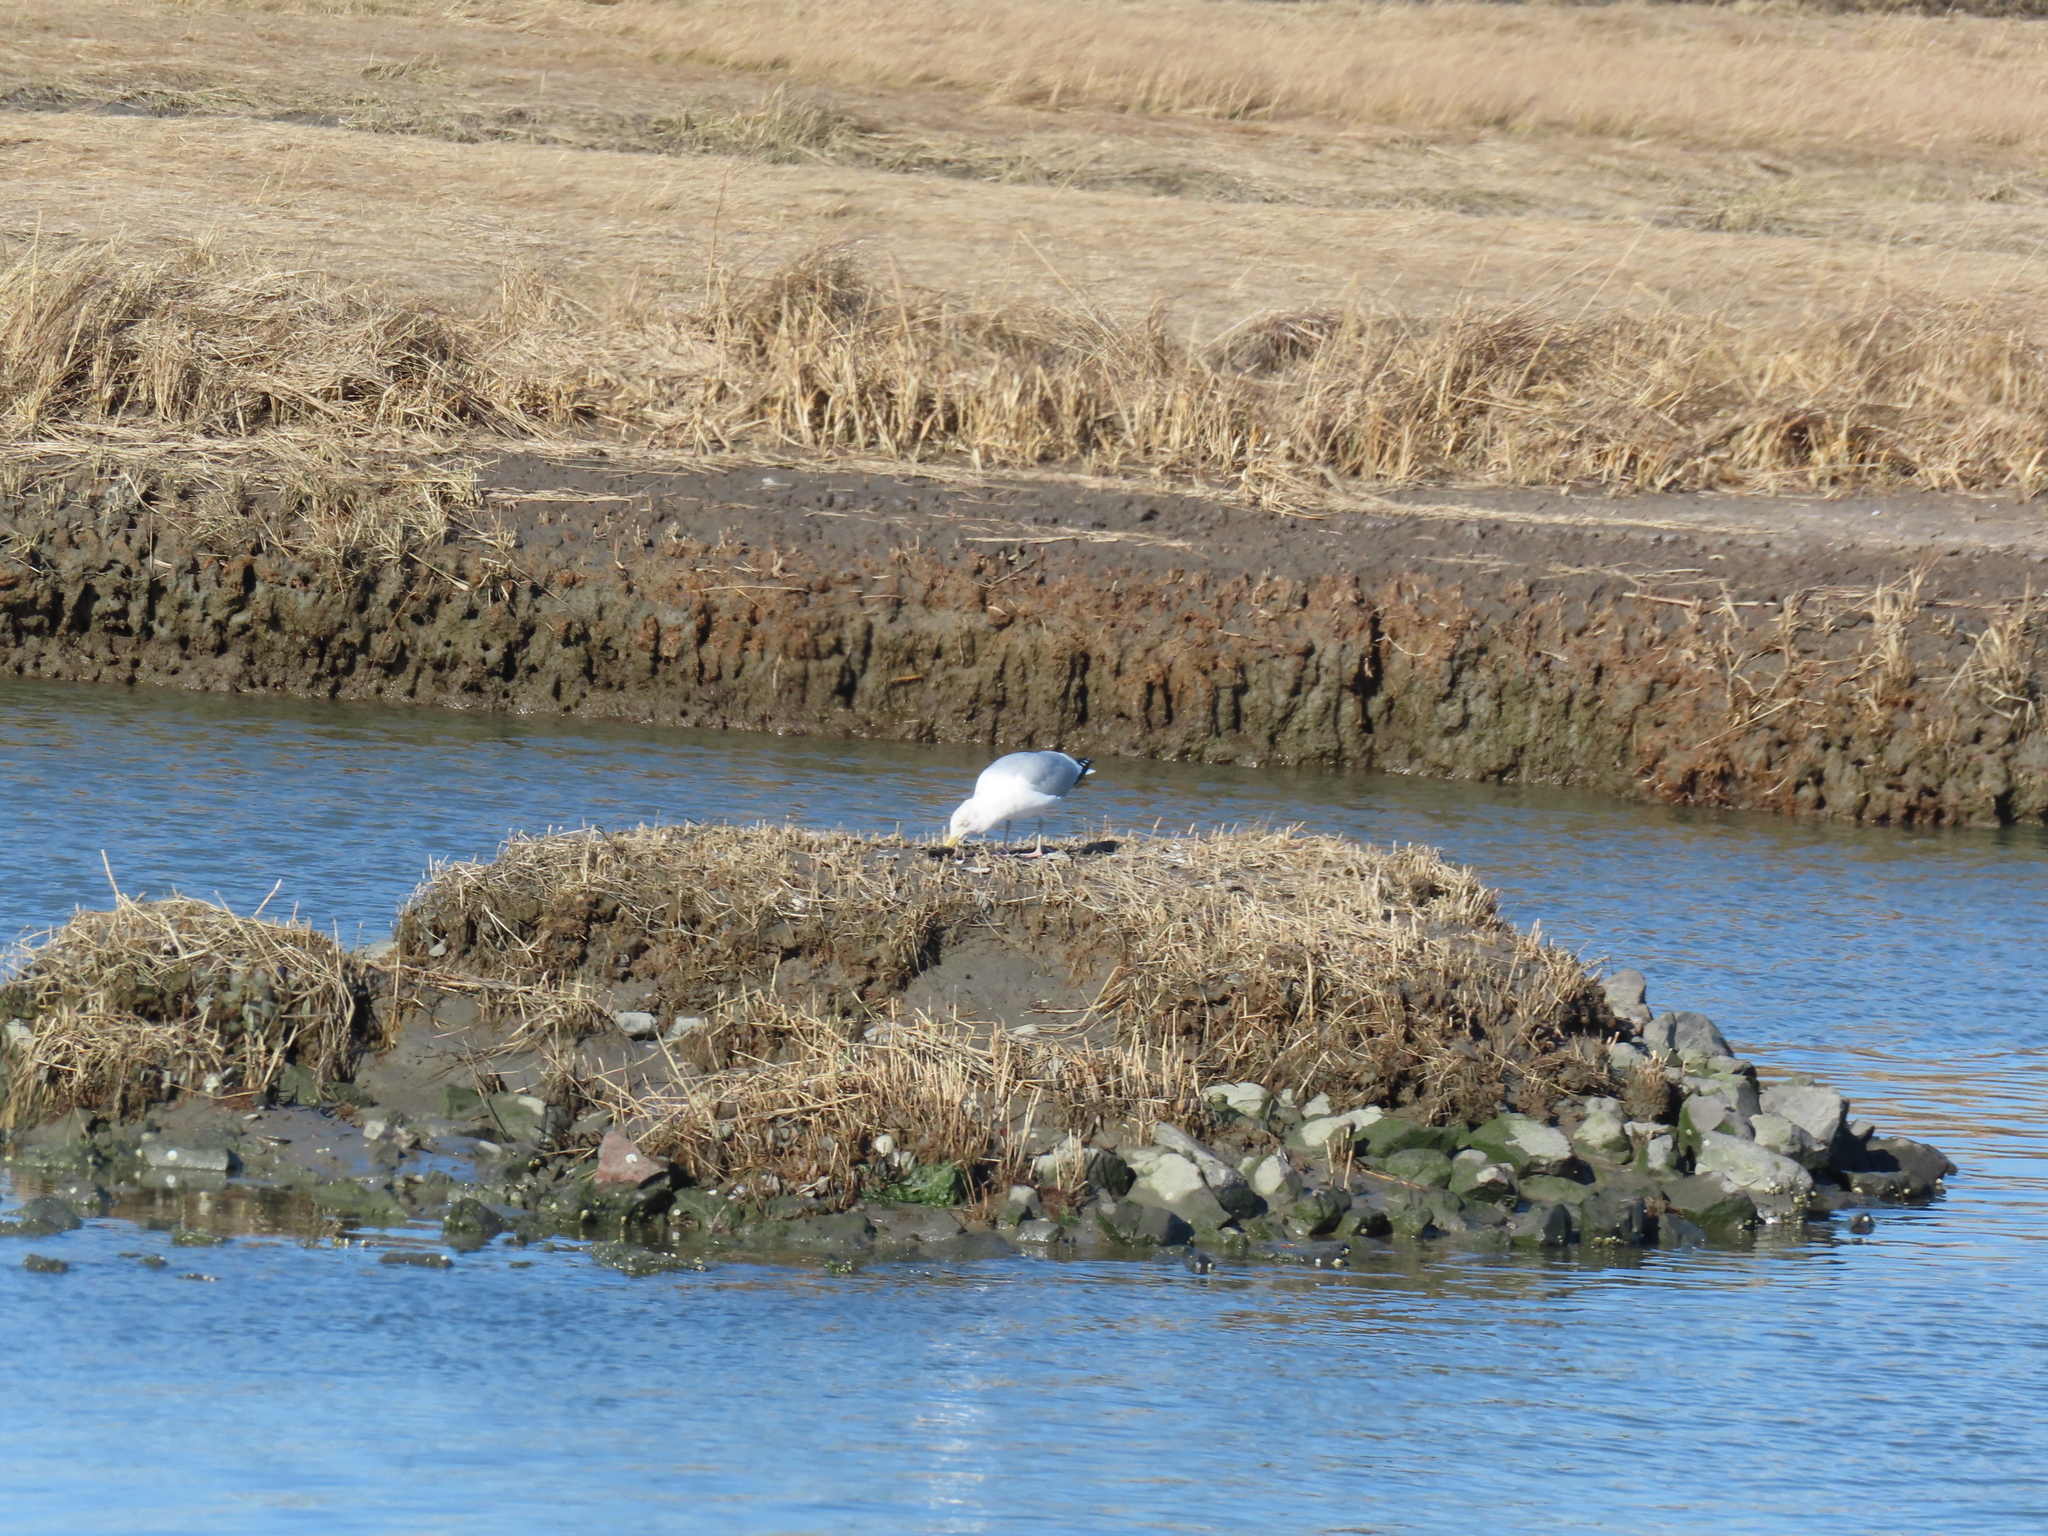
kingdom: Animalia
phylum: Chordata
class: Aves
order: Charadriiformes
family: Laridae
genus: Larus
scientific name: Larus argentatus
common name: Herring gull
